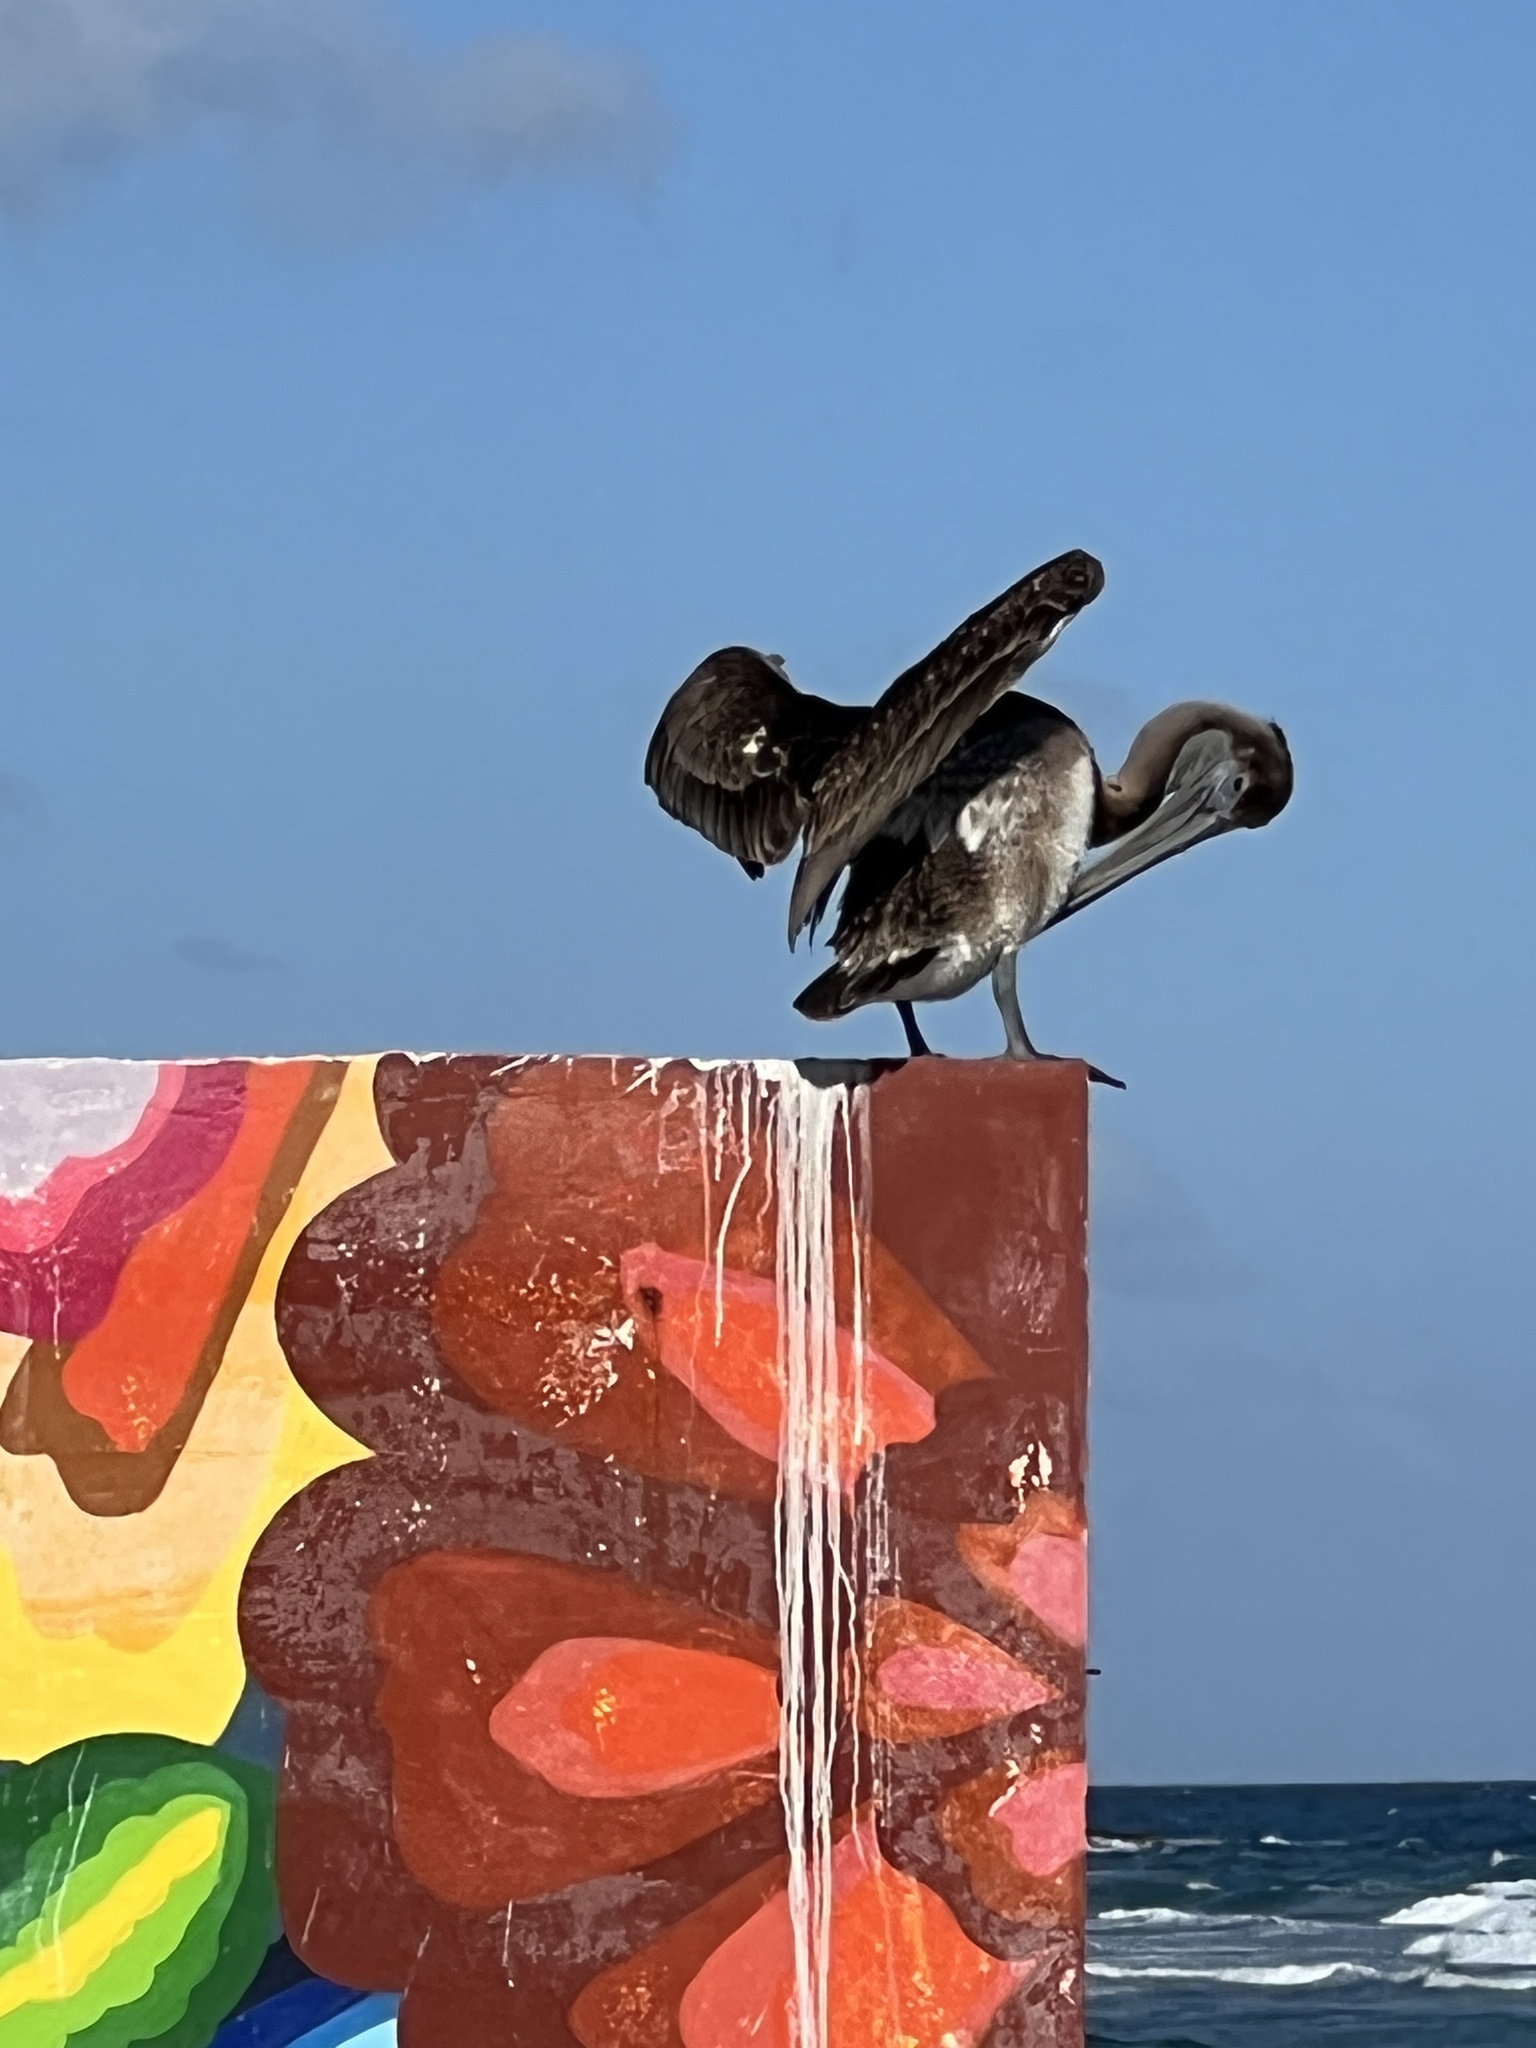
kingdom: Animalia
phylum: Chordata
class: Aves
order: Pelecaniformes
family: Pelecanidae
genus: Pelecanus
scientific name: Pelecanus occidentalis
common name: Brown pelican
